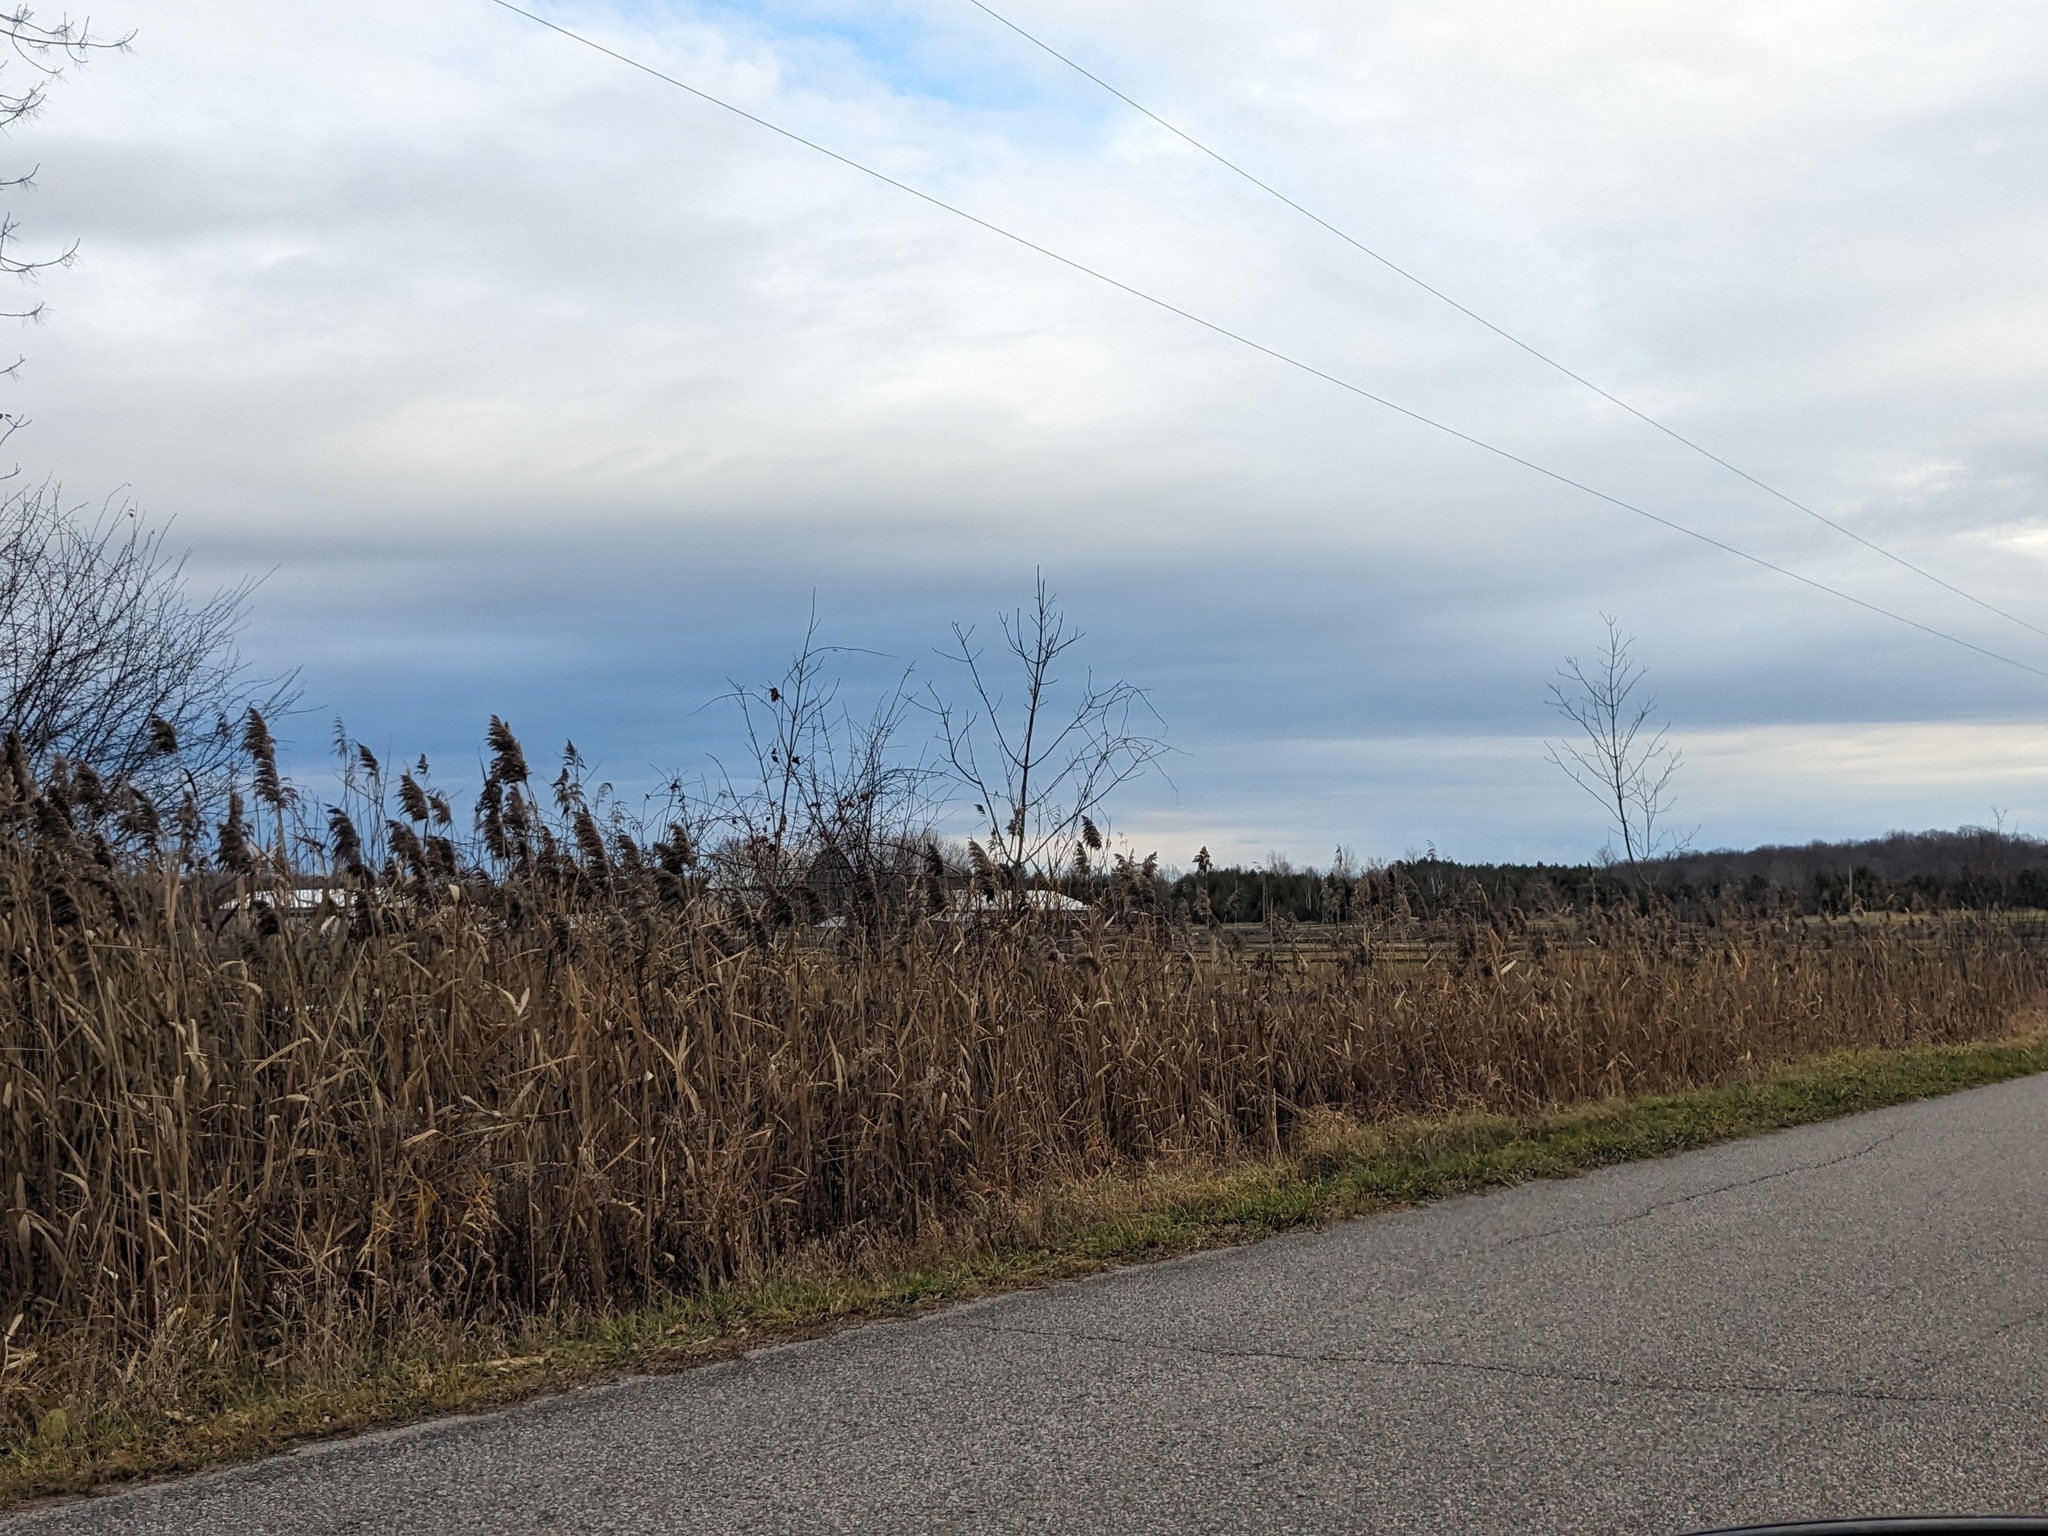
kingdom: Plantae
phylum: Tracheophyta
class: Liliopsida
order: Poales
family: Poaceae
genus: Phragmites
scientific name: Phragmites australis
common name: Common reed
